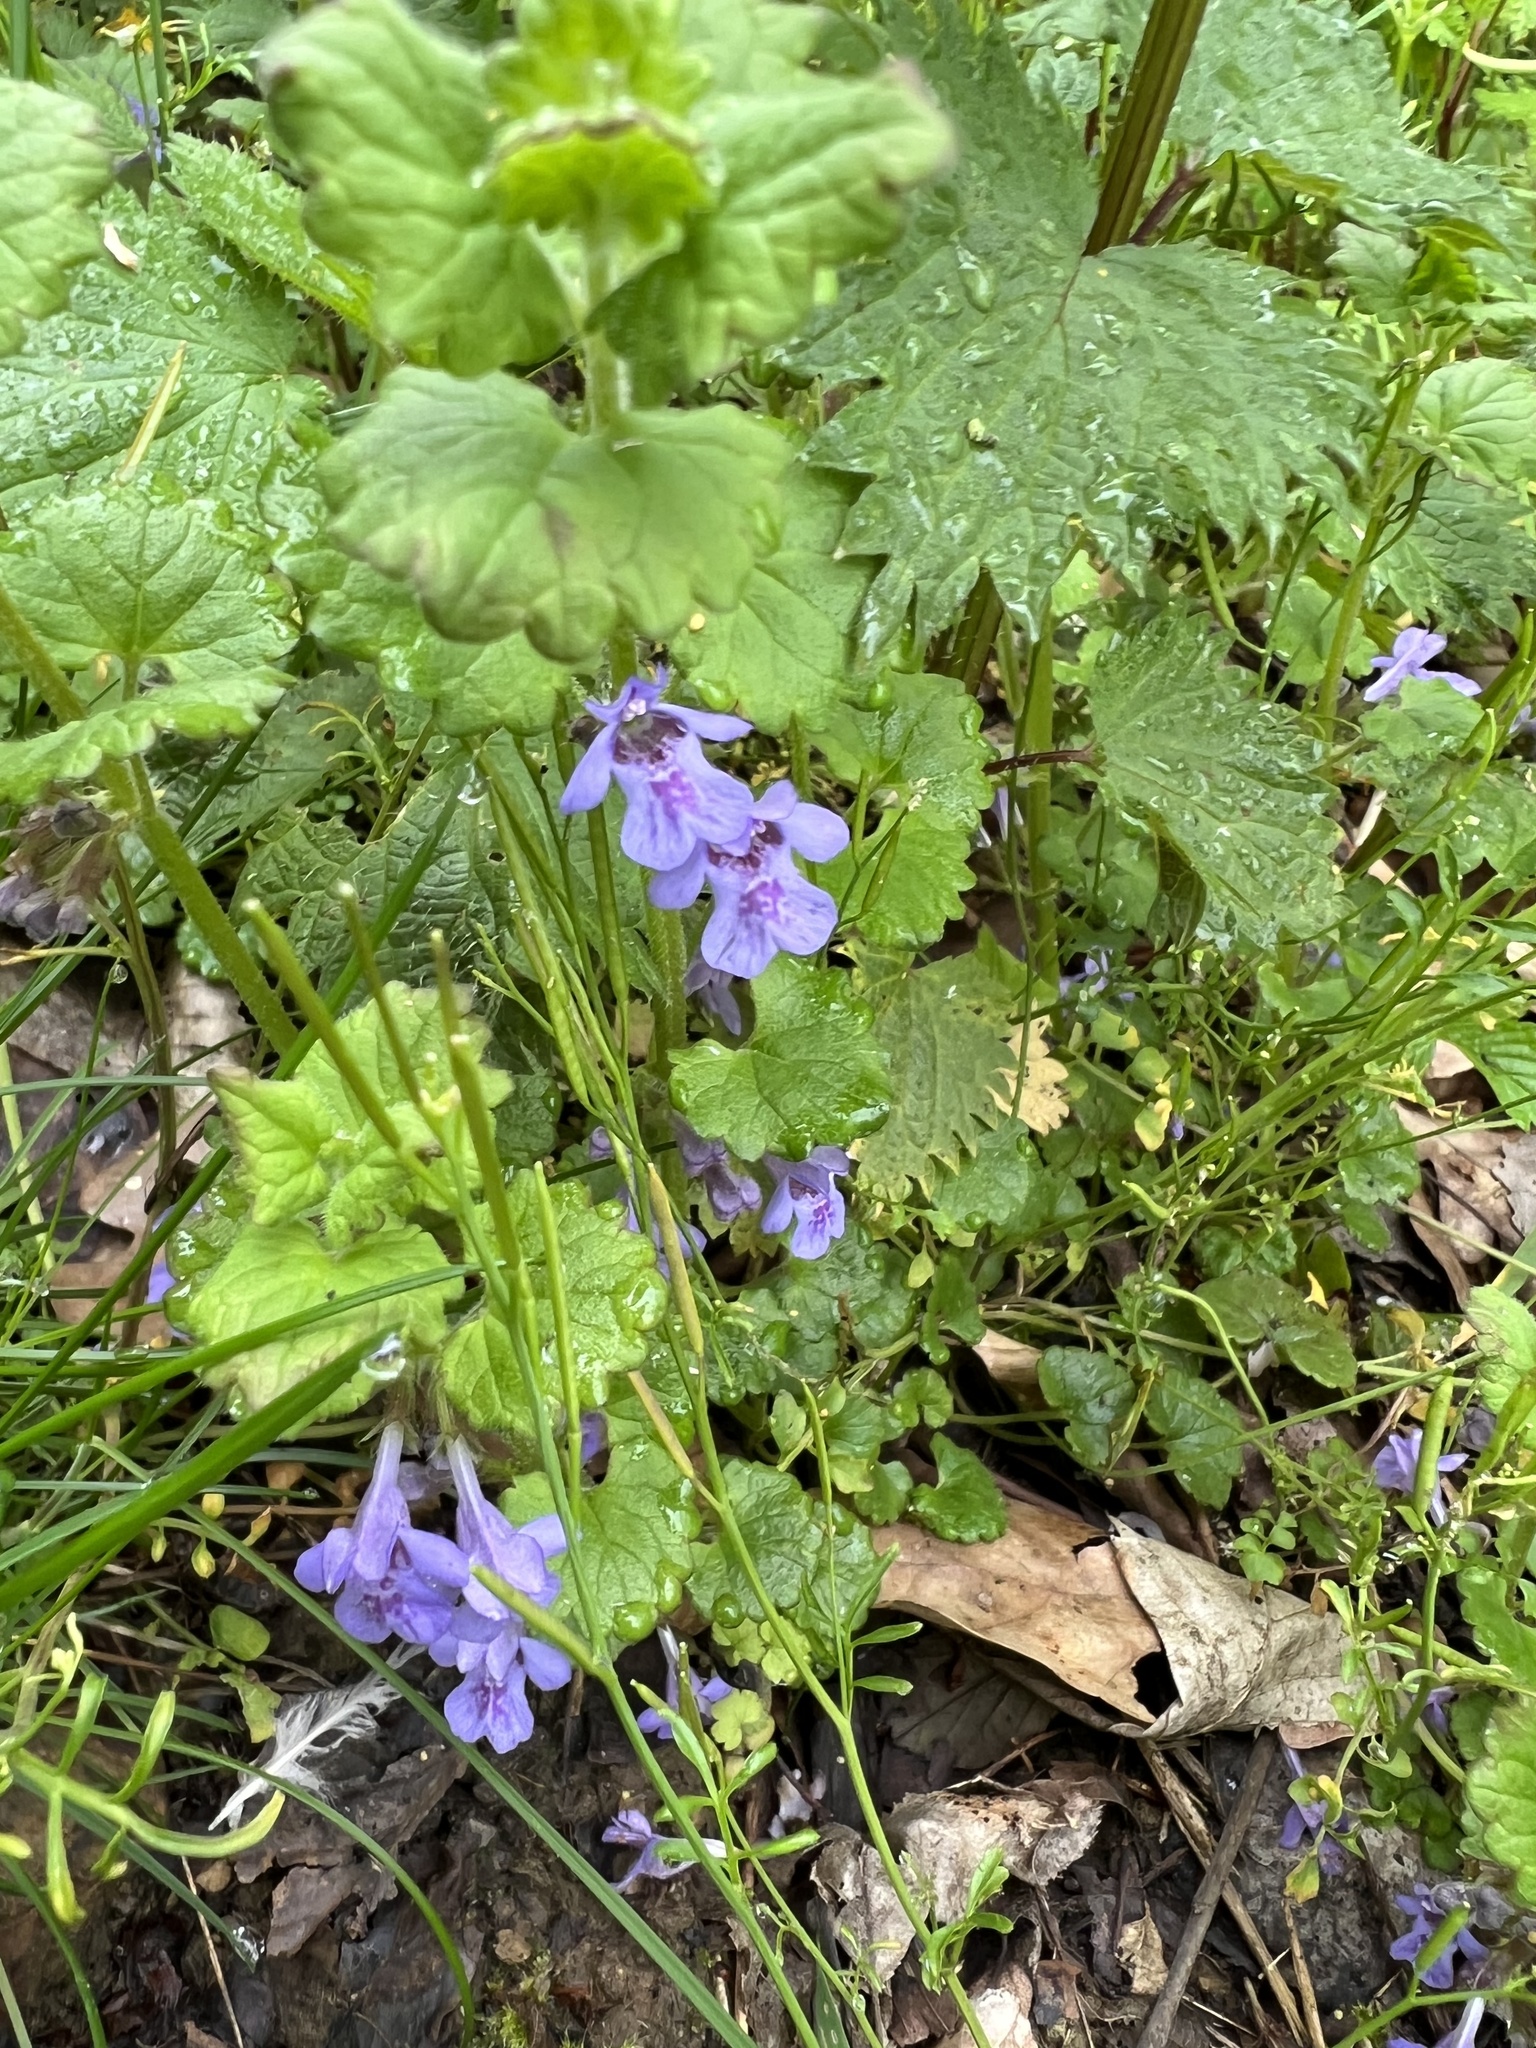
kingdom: Plantae
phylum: Tracheophyta
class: Magnoliopsida
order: Lamiales
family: Lamiaceae
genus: Glechoma
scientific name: Glechoma hederacea
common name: Ground ivy
